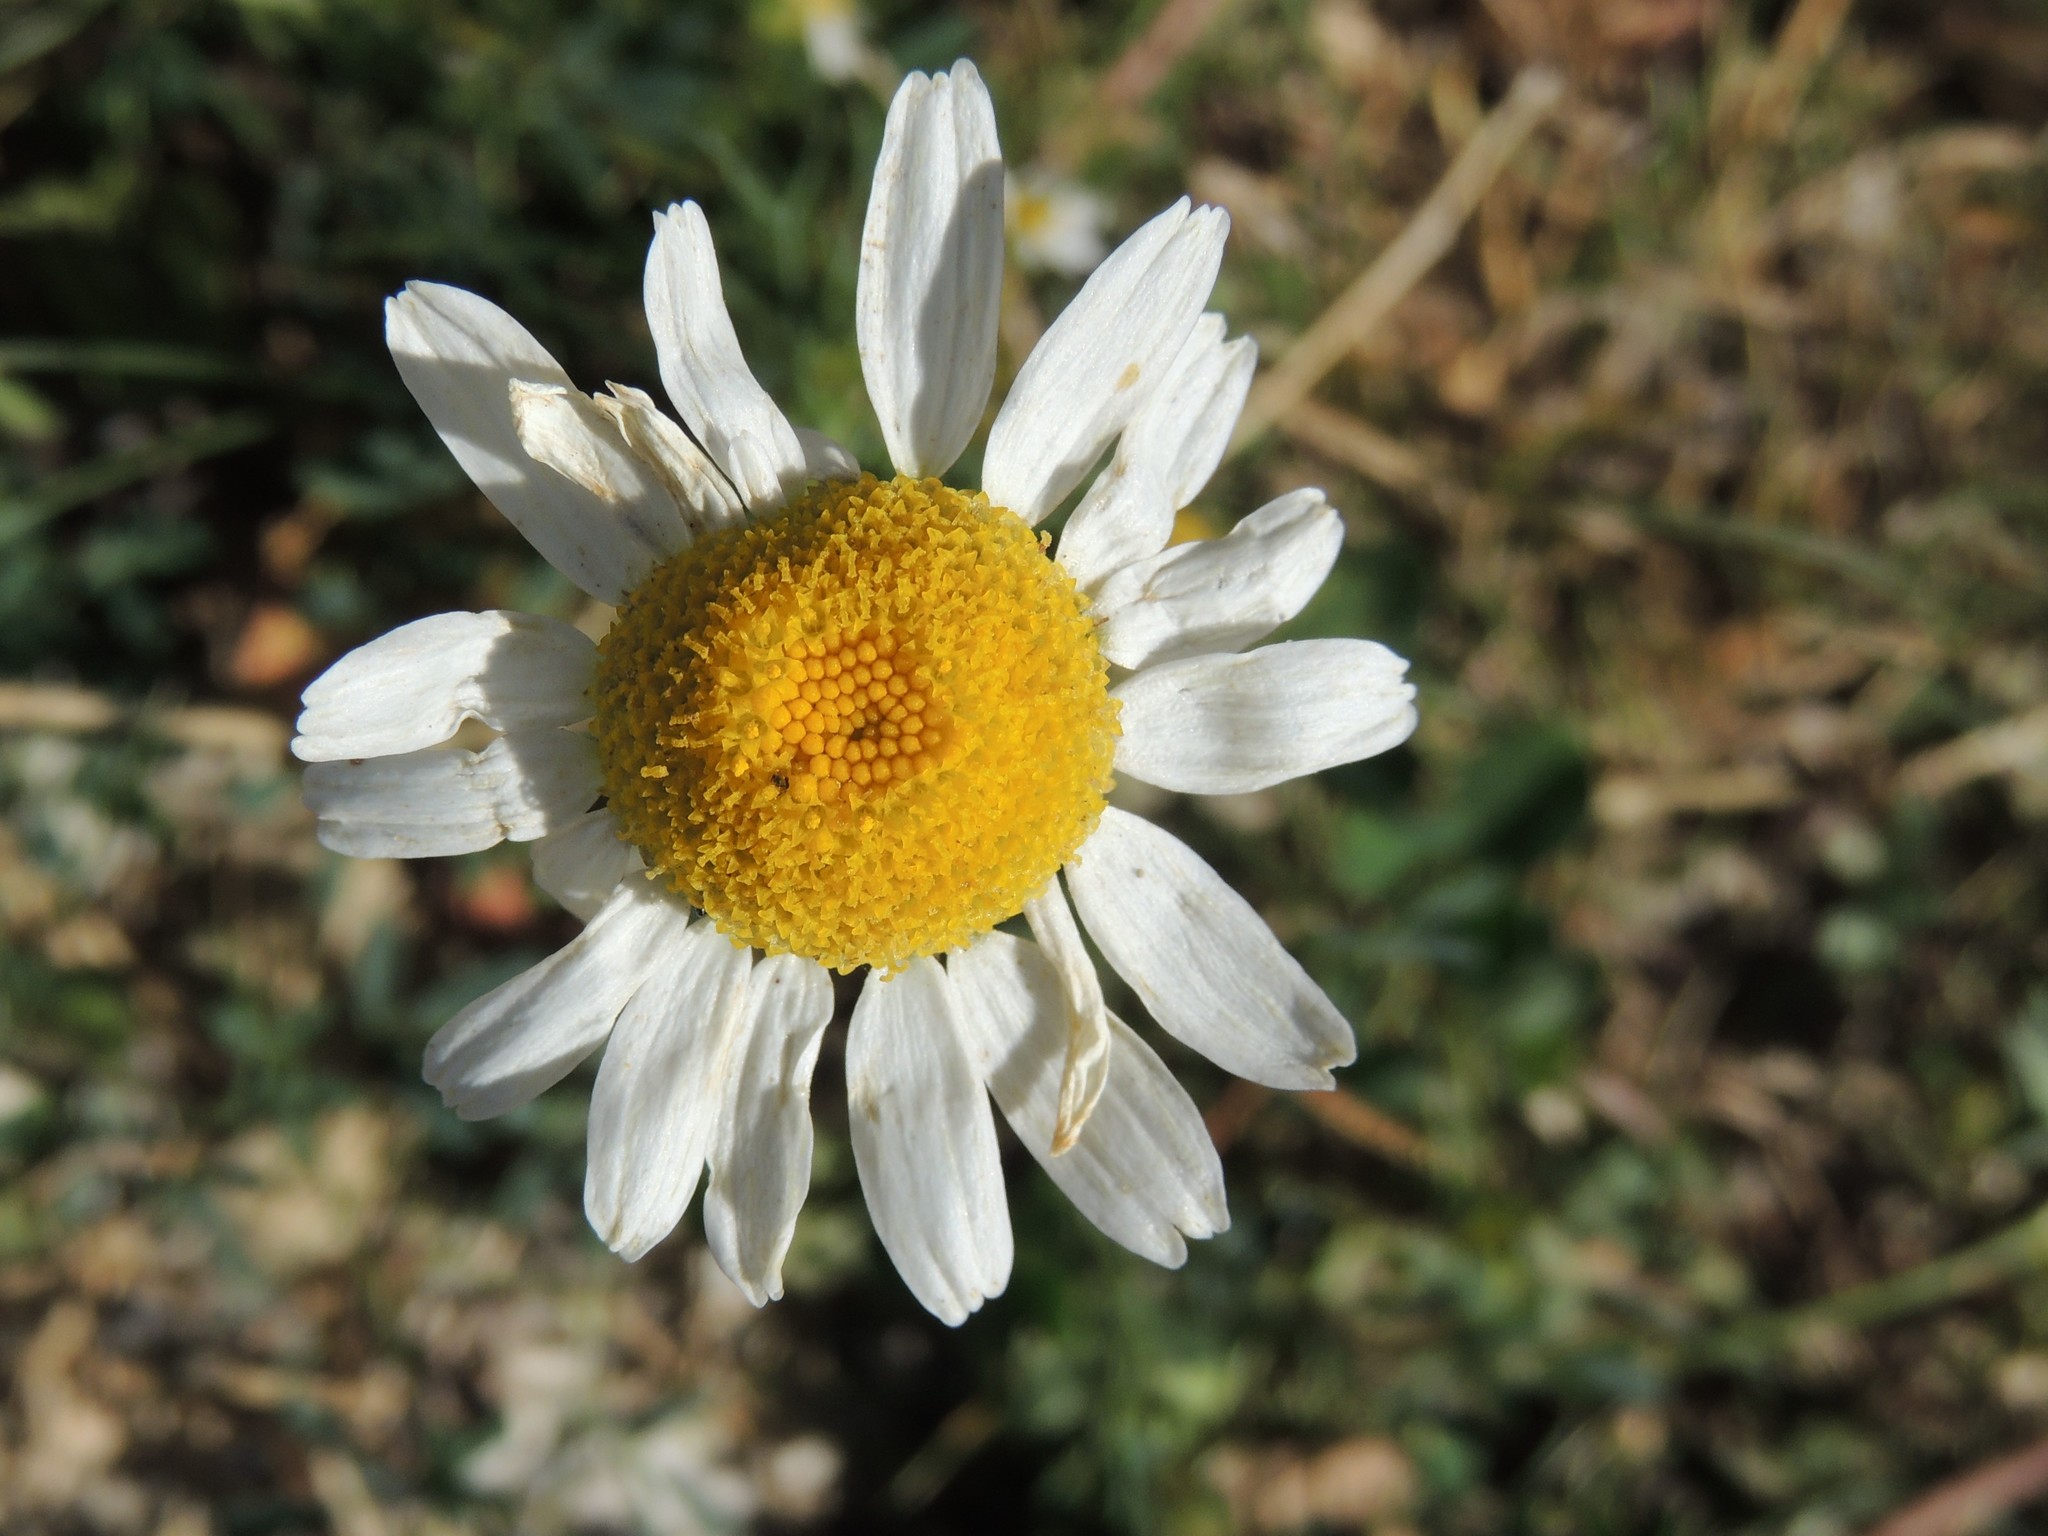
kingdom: Plantae
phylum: Tracheophyta
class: Magnoliopsida
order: Asterales
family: Asteraceae
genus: Tripleurospermum
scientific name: Tripleurospermum inodorum
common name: Scentless mayweed
